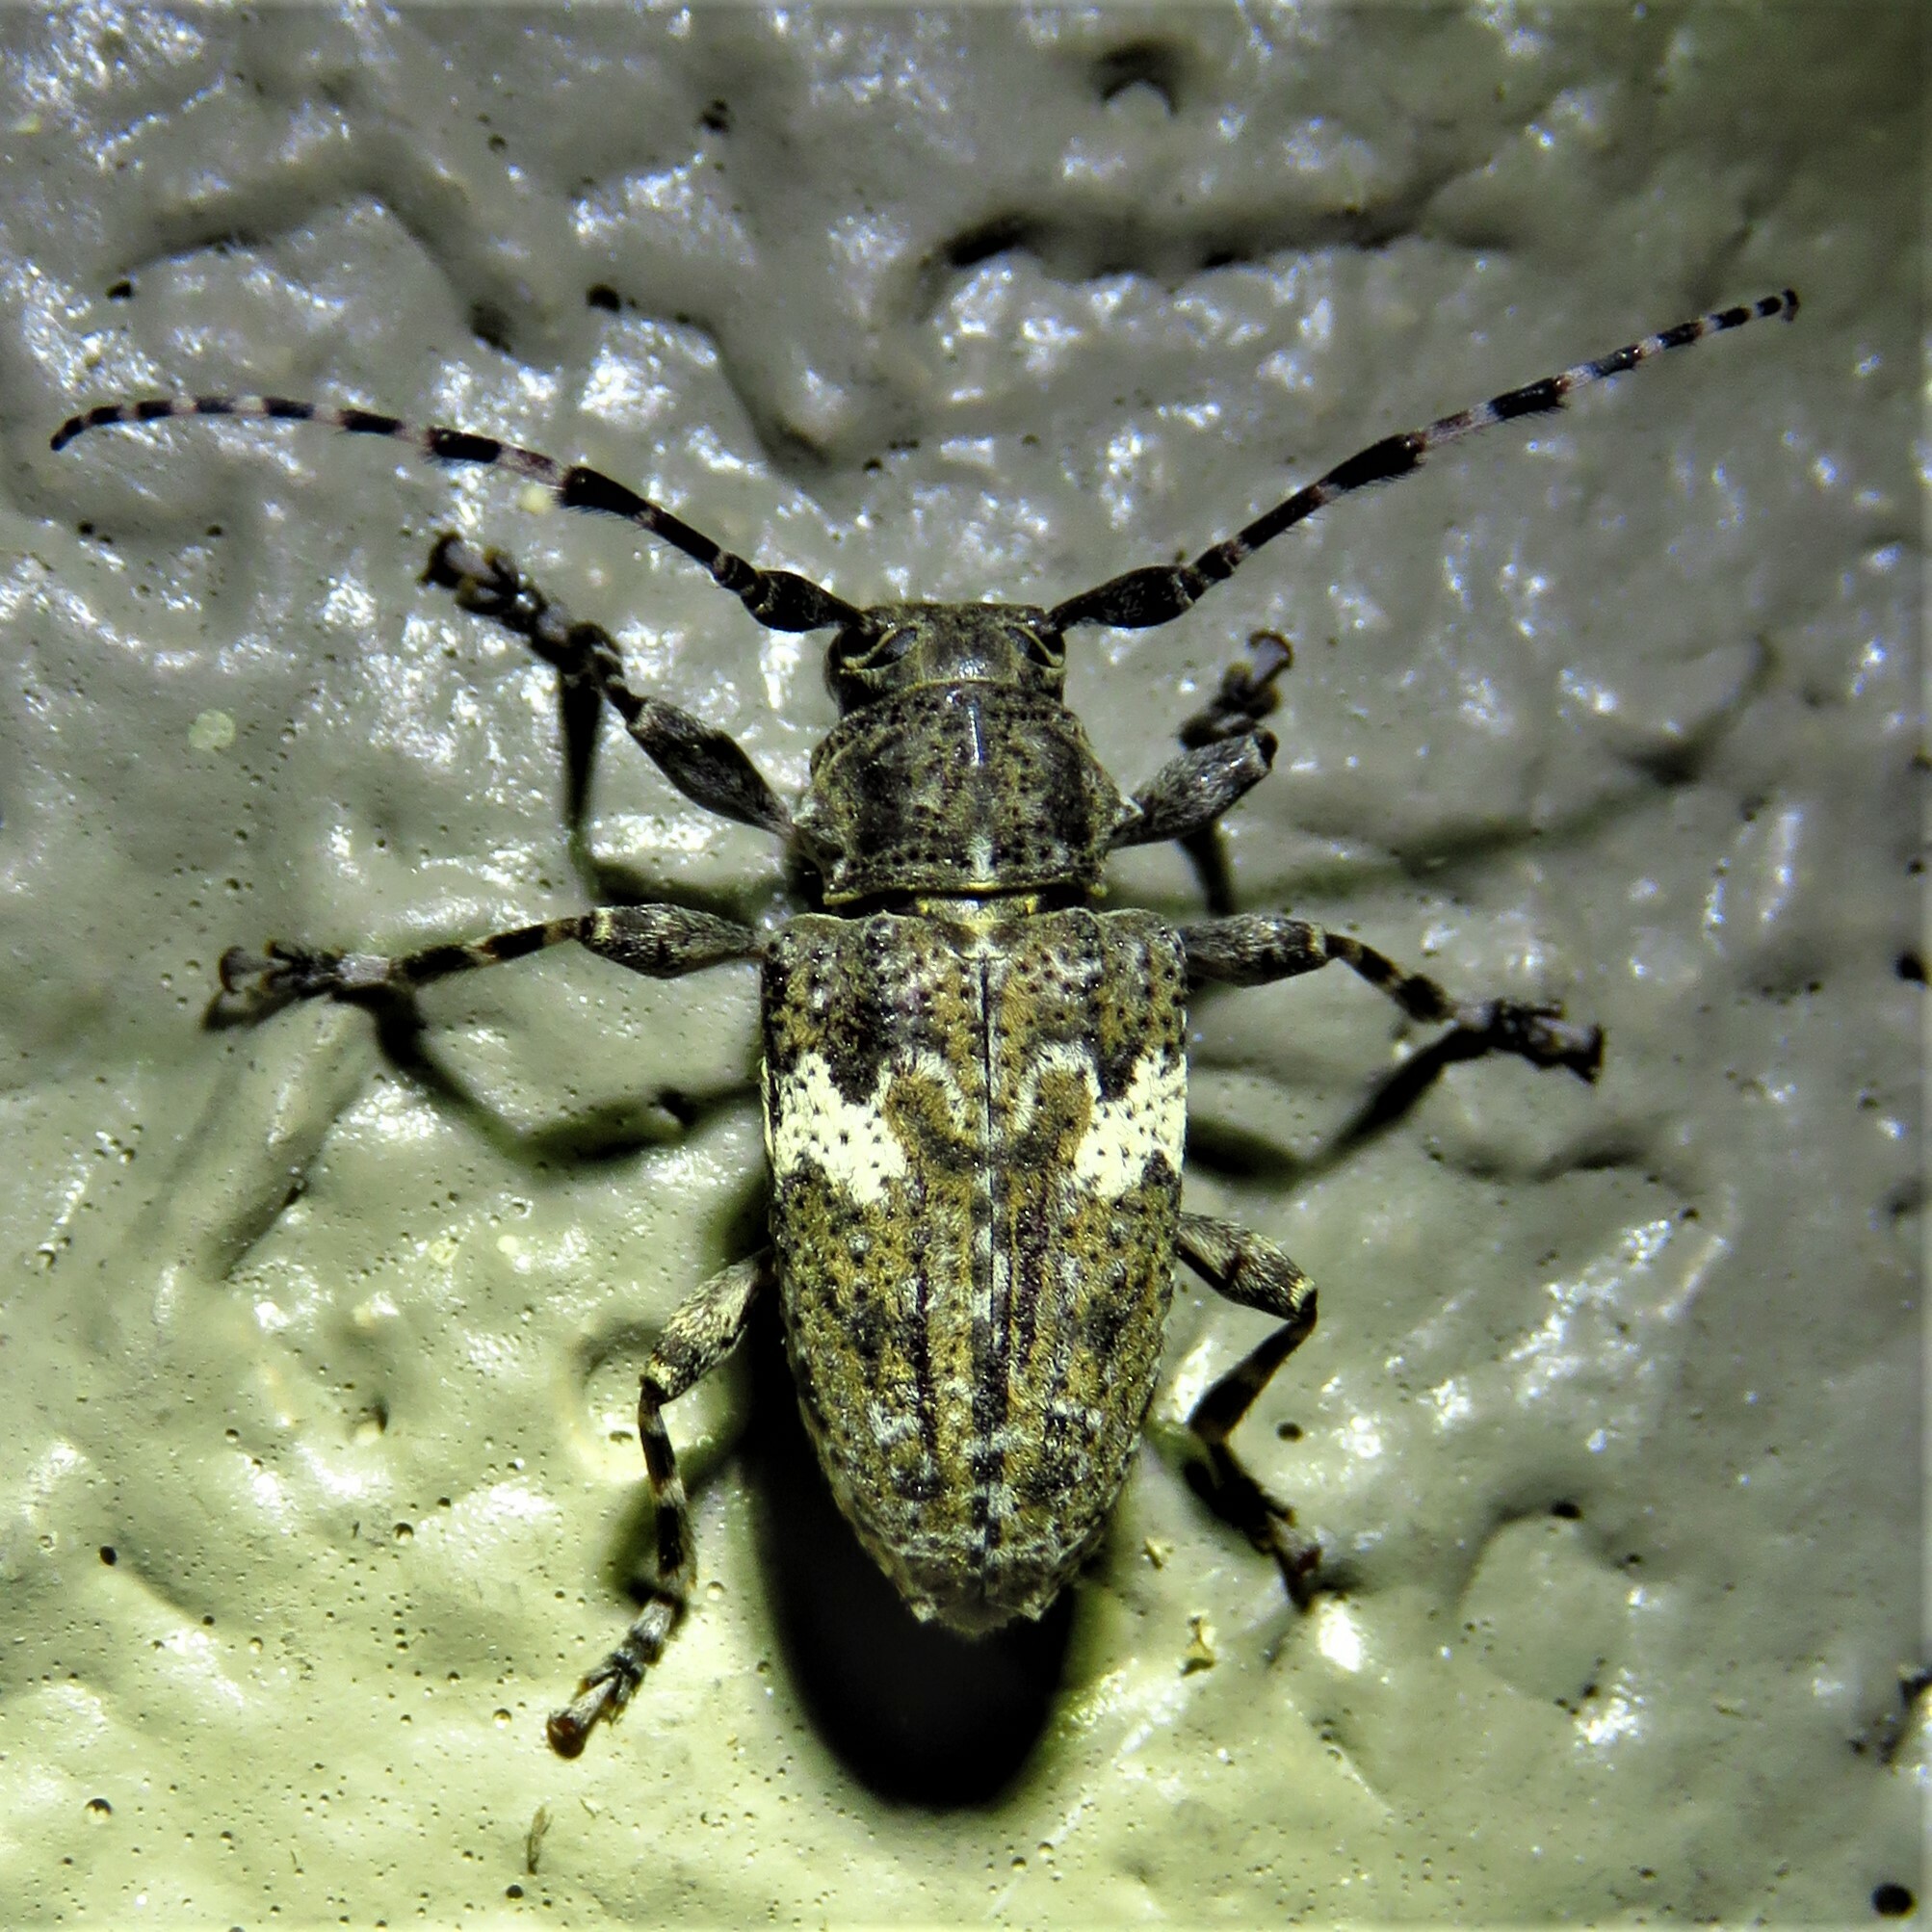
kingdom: Animalia
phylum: Arthropoda
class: Insecta
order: Coleoptera
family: Cerambycidae
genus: Acanthoderes
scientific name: Acanthoderes quadrigibba
